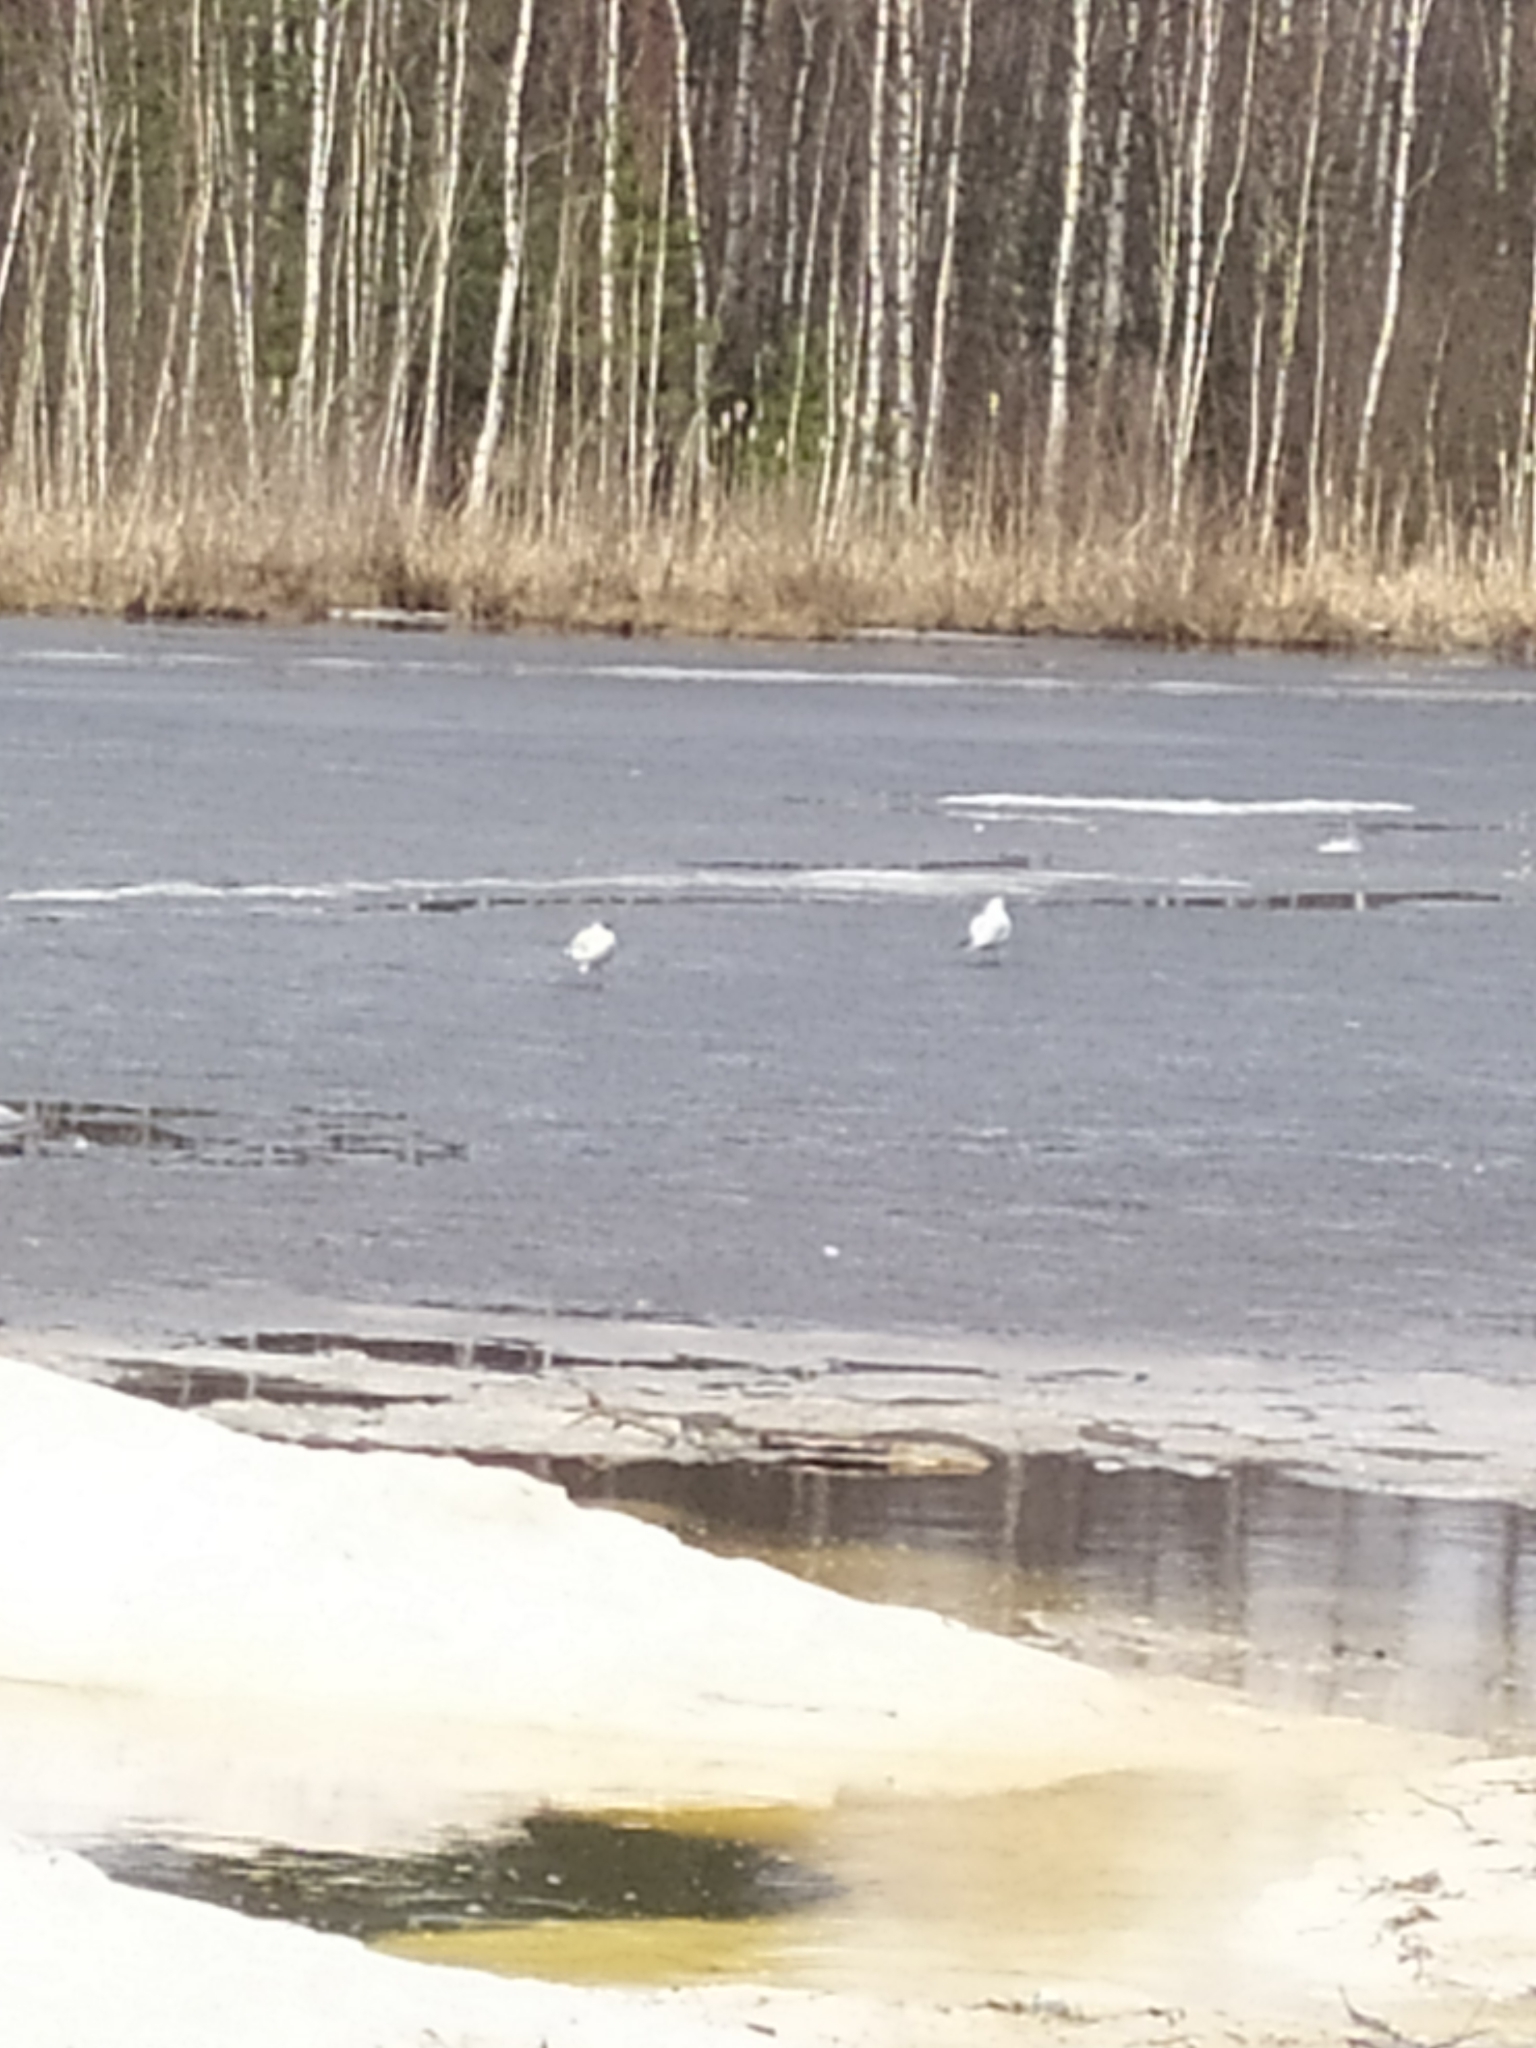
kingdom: Animalia
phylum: Chordata
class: Aves
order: Charadriiformes
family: Laridae
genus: Chroicocephalus
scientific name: Chroicocephalus ridibundus
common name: Black-headed gull
